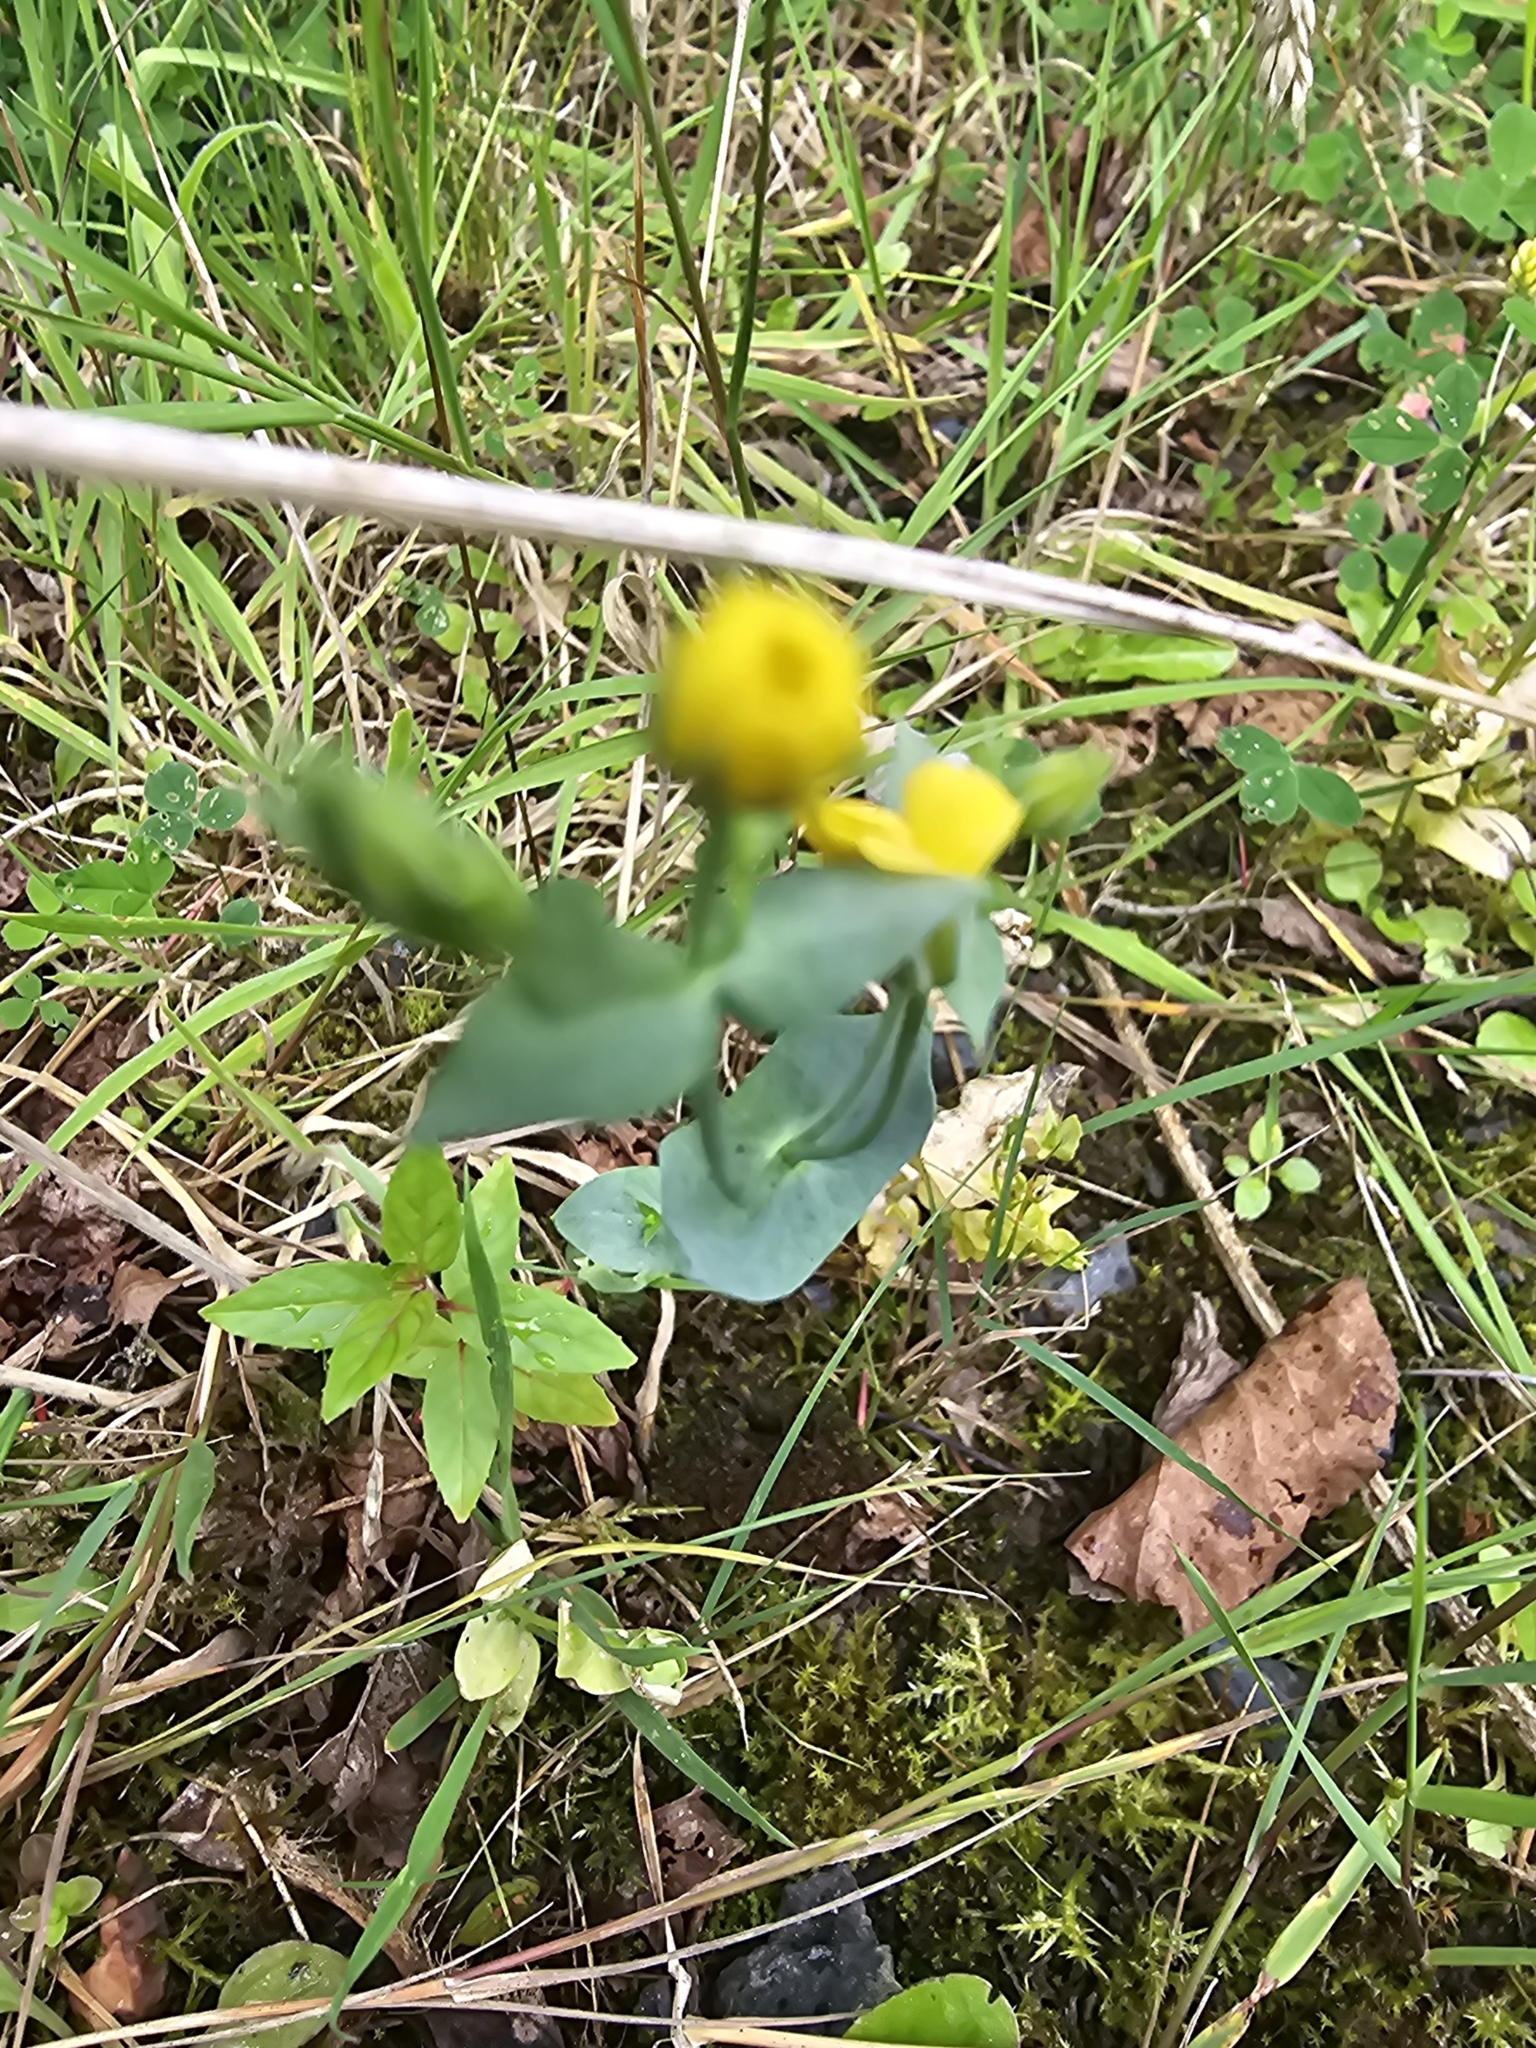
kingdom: Plantae
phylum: Tracheophyta
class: Magnoliopsida
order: Gentianales
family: Gentianaceae
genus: Blackstonia
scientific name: Blackstonia perfoliata
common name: Yellow-wort
